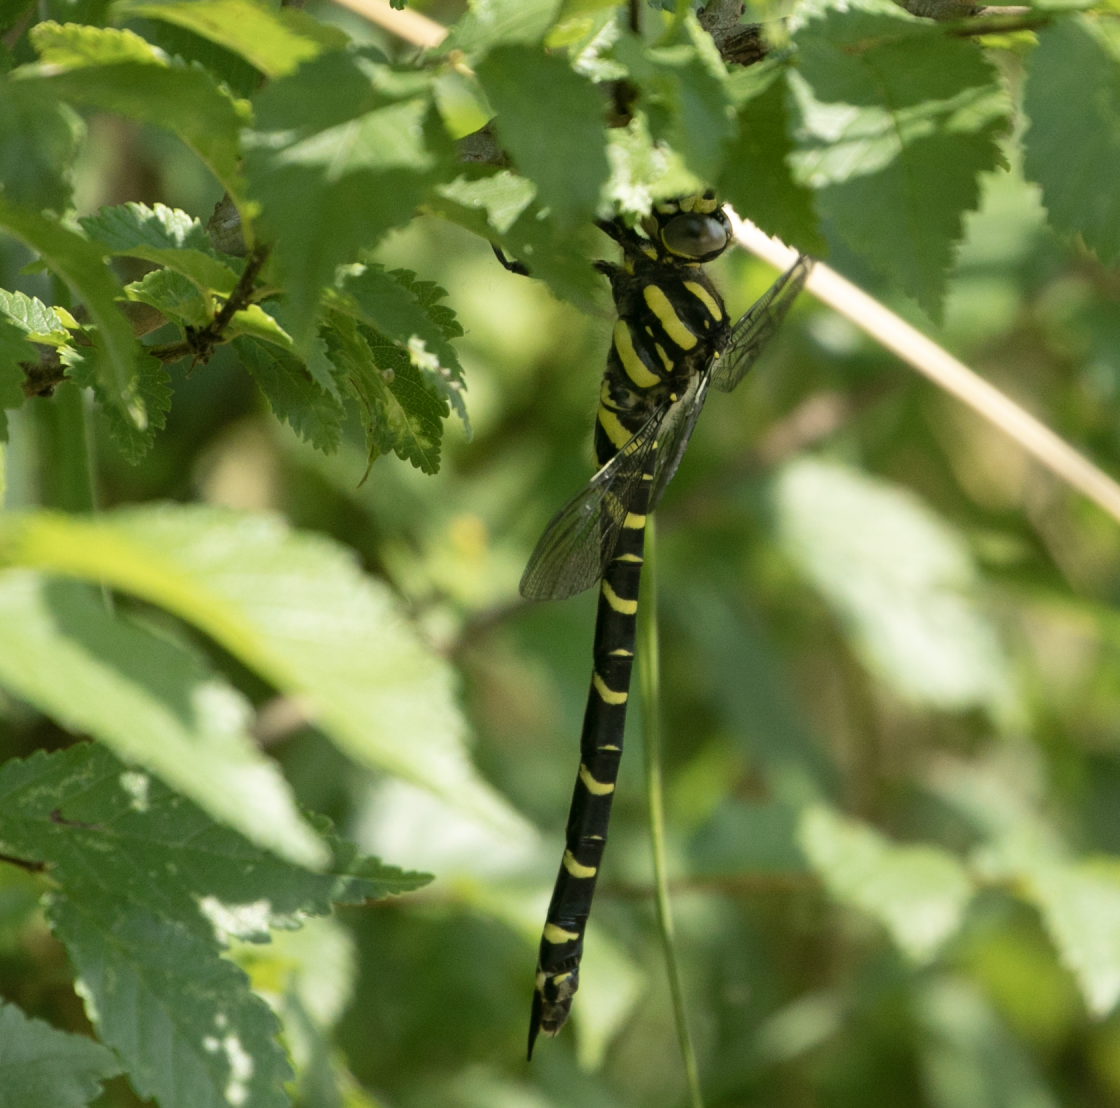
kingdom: Animalia
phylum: Arthropoda
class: Insecta
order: Odonata
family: Cordulegastridae
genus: Cordulegaster
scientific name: Cordulegaster boltonii
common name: Golden-ringed dragonfly
